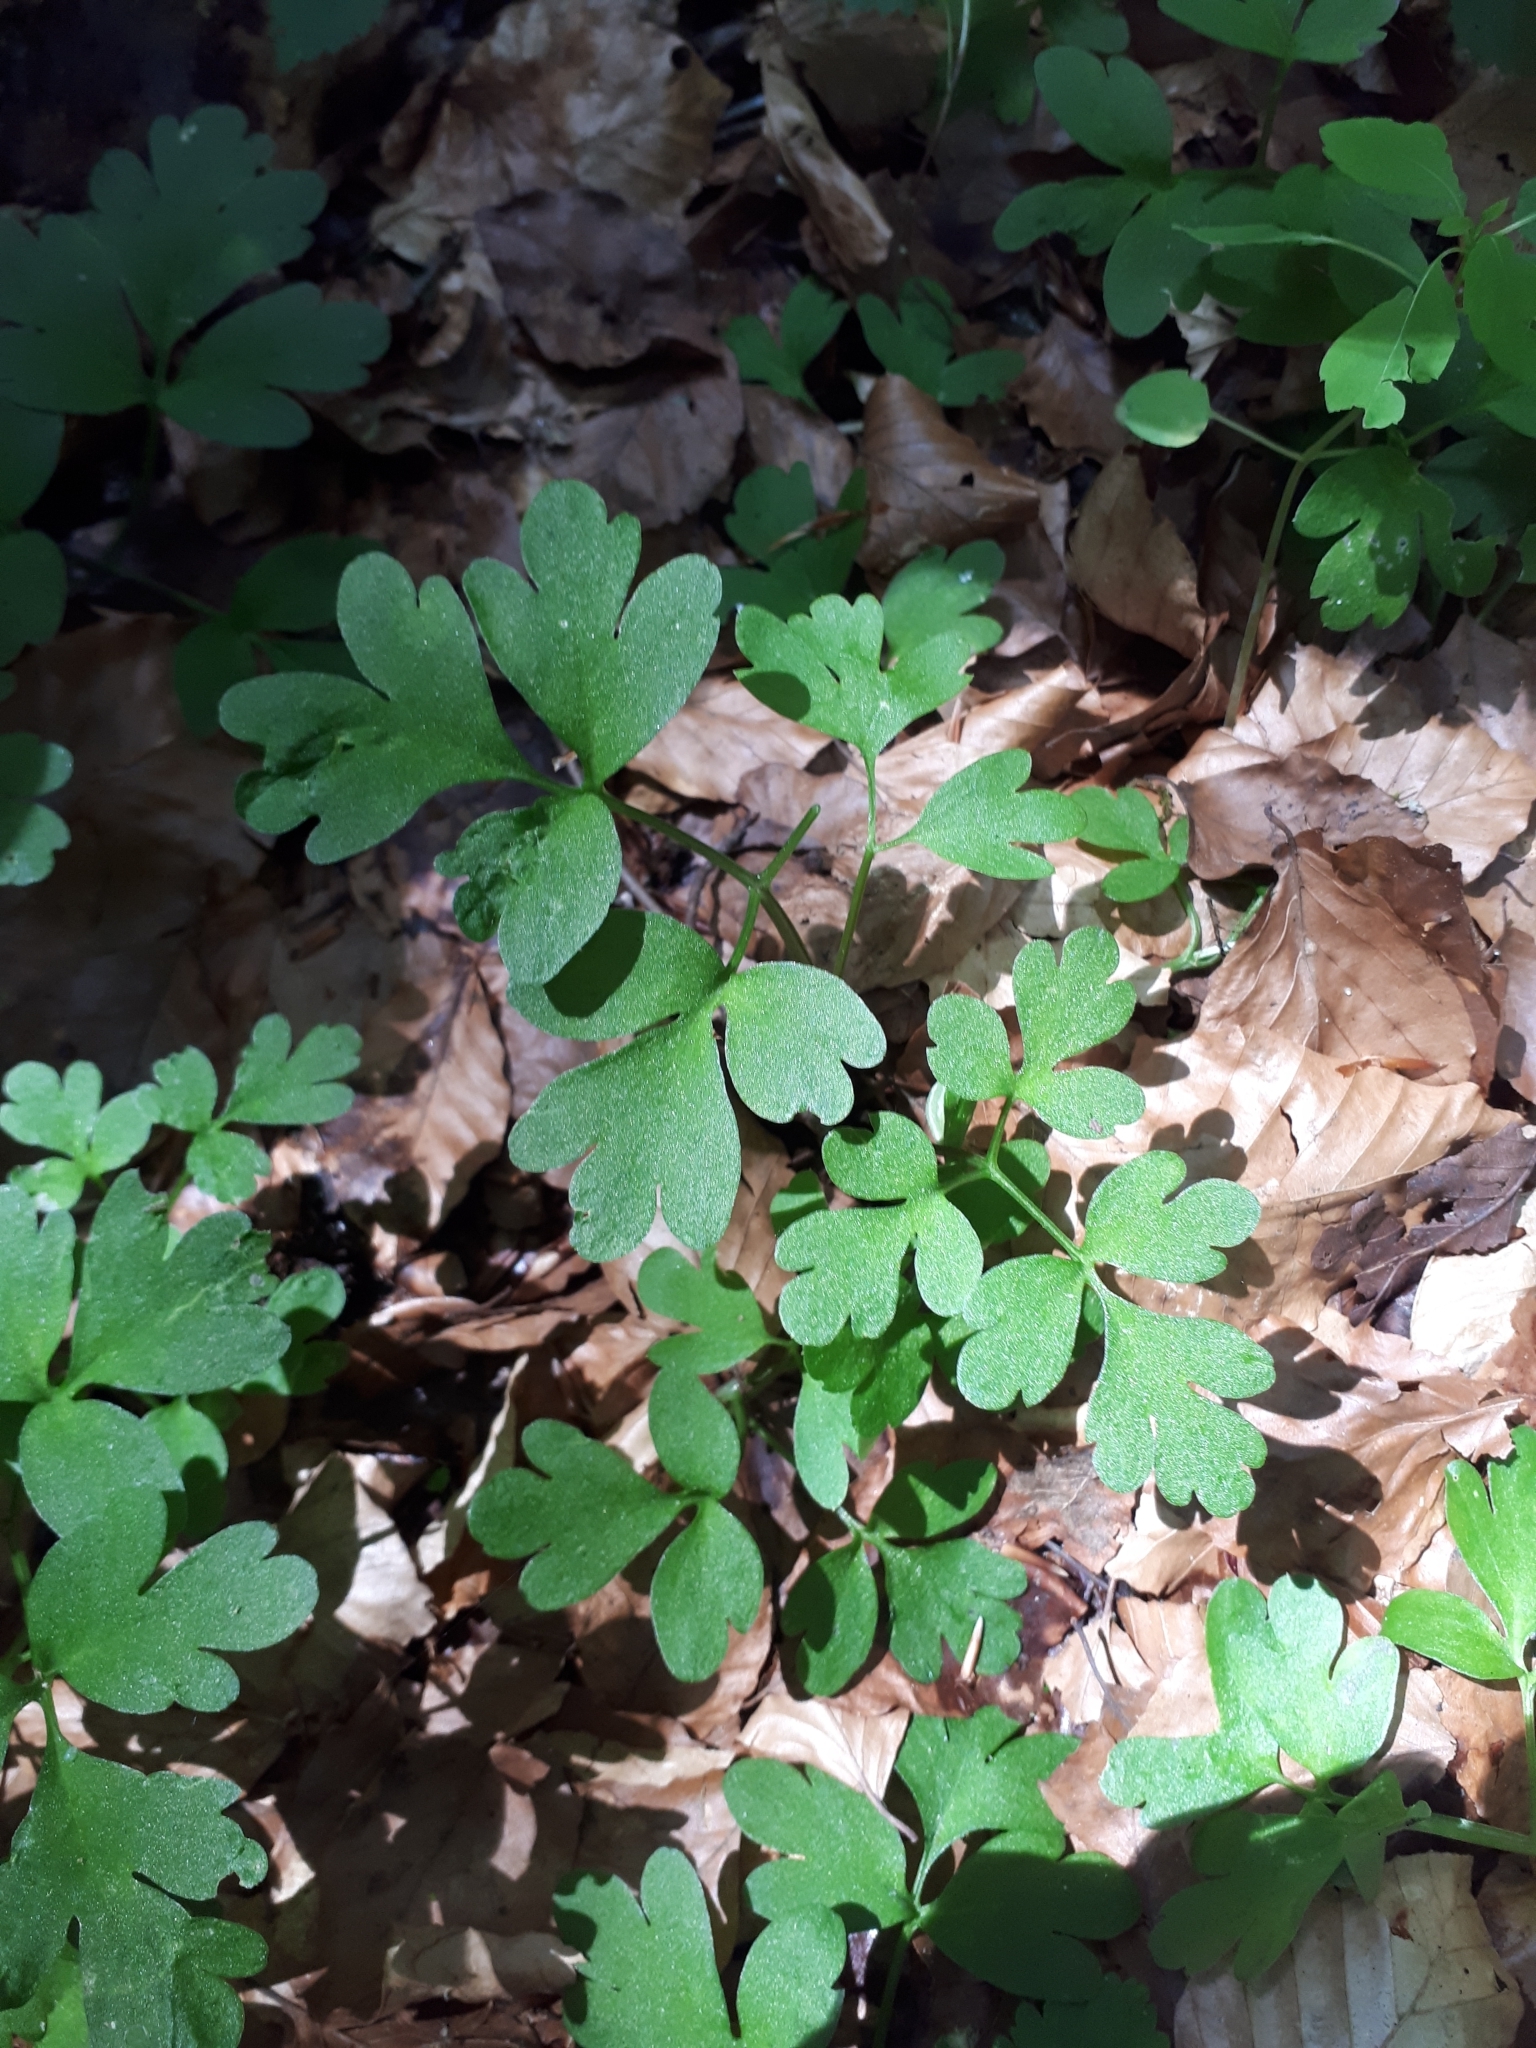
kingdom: Plantae
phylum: Tracheophyta
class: Magnoliopsida
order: Dipsacales
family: Viburnaceae
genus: Adoxa
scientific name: Adoxa moschatellina
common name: Moschatel
